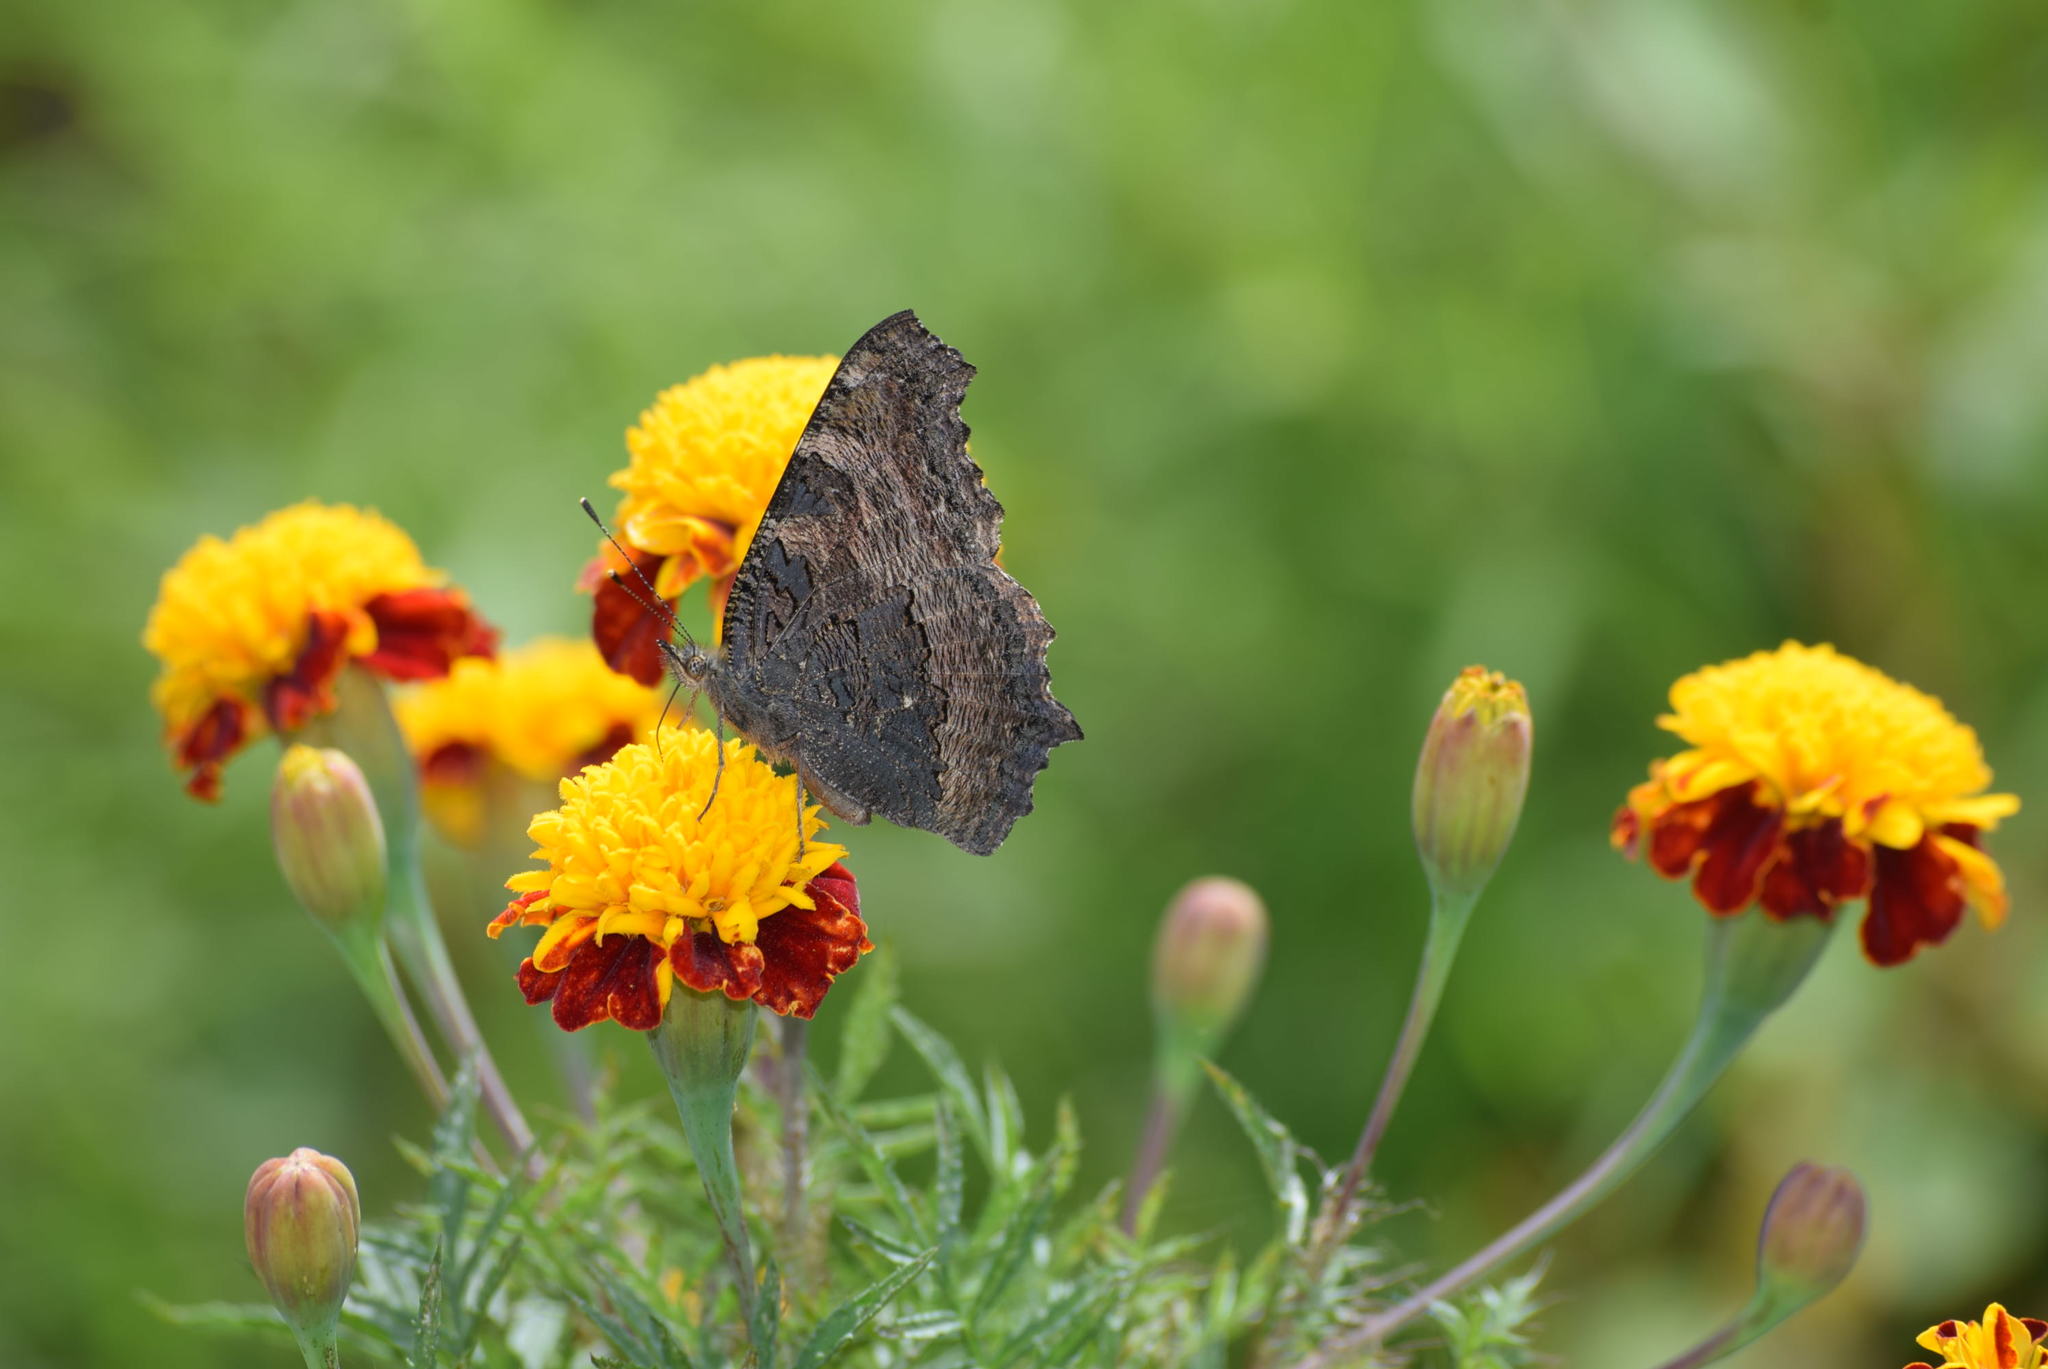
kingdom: Animalia
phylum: Arthropoda
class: Insecta
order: Lepidoptera
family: Nymphalidae
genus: Aglais
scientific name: Aglais caschmirensis
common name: Indian tortoiseshell
